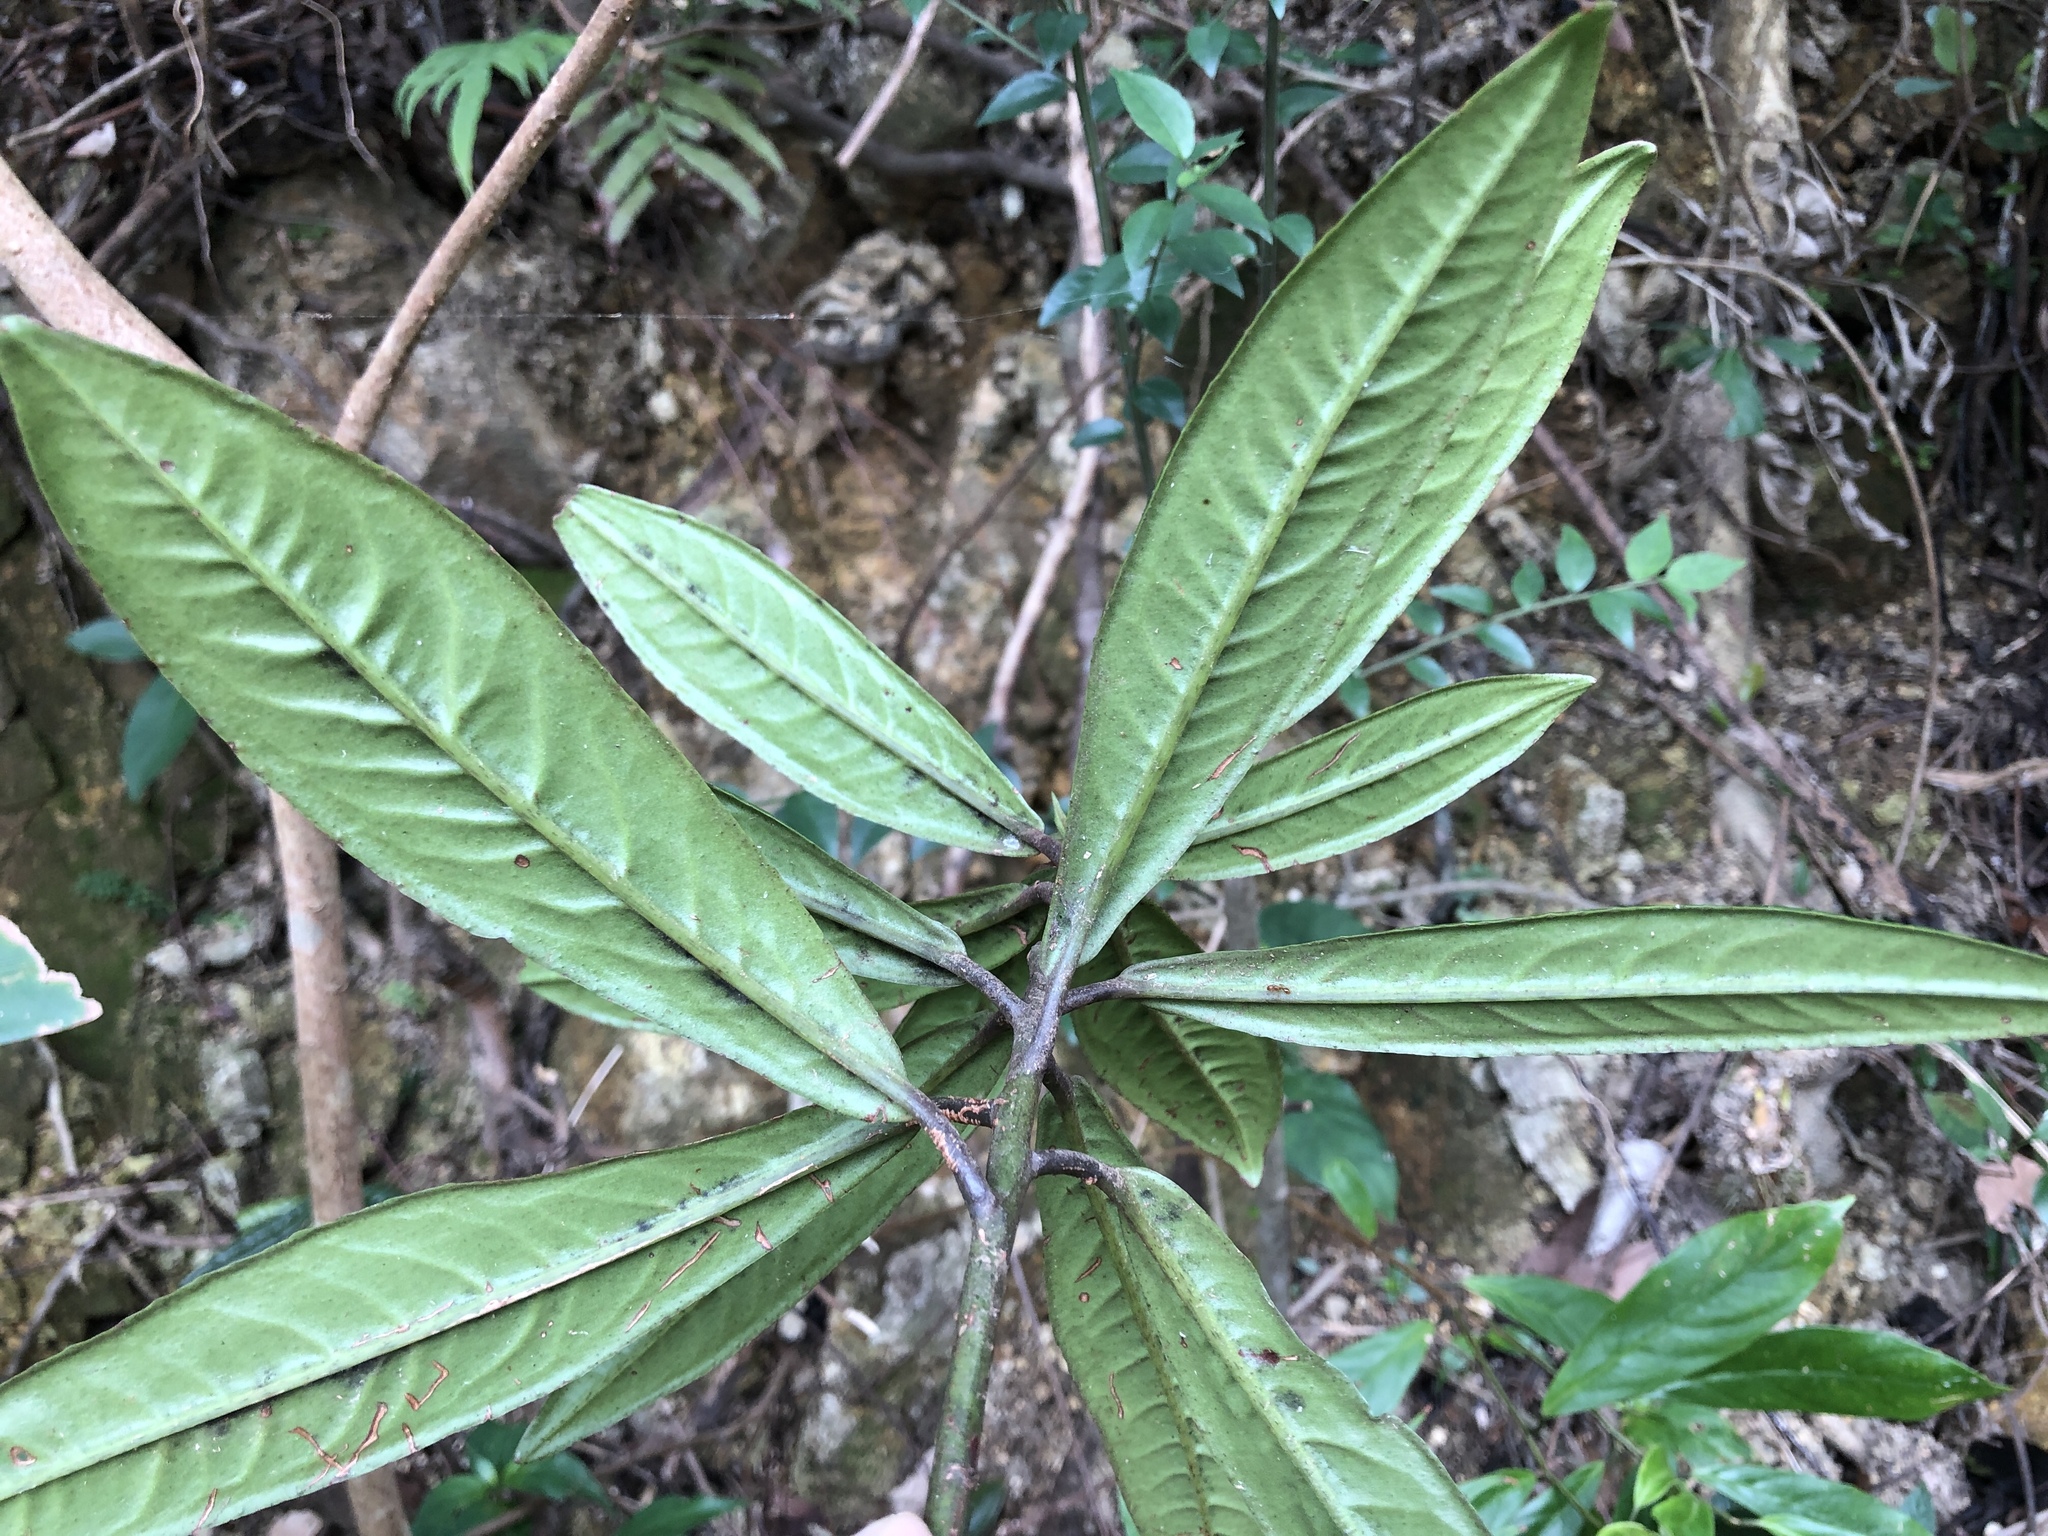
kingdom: Plantae
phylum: Tracheophyta
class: Magnoliopsida
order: Ericales
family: Primulaceae
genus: Ardisia
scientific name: Ardisia lindleyana
